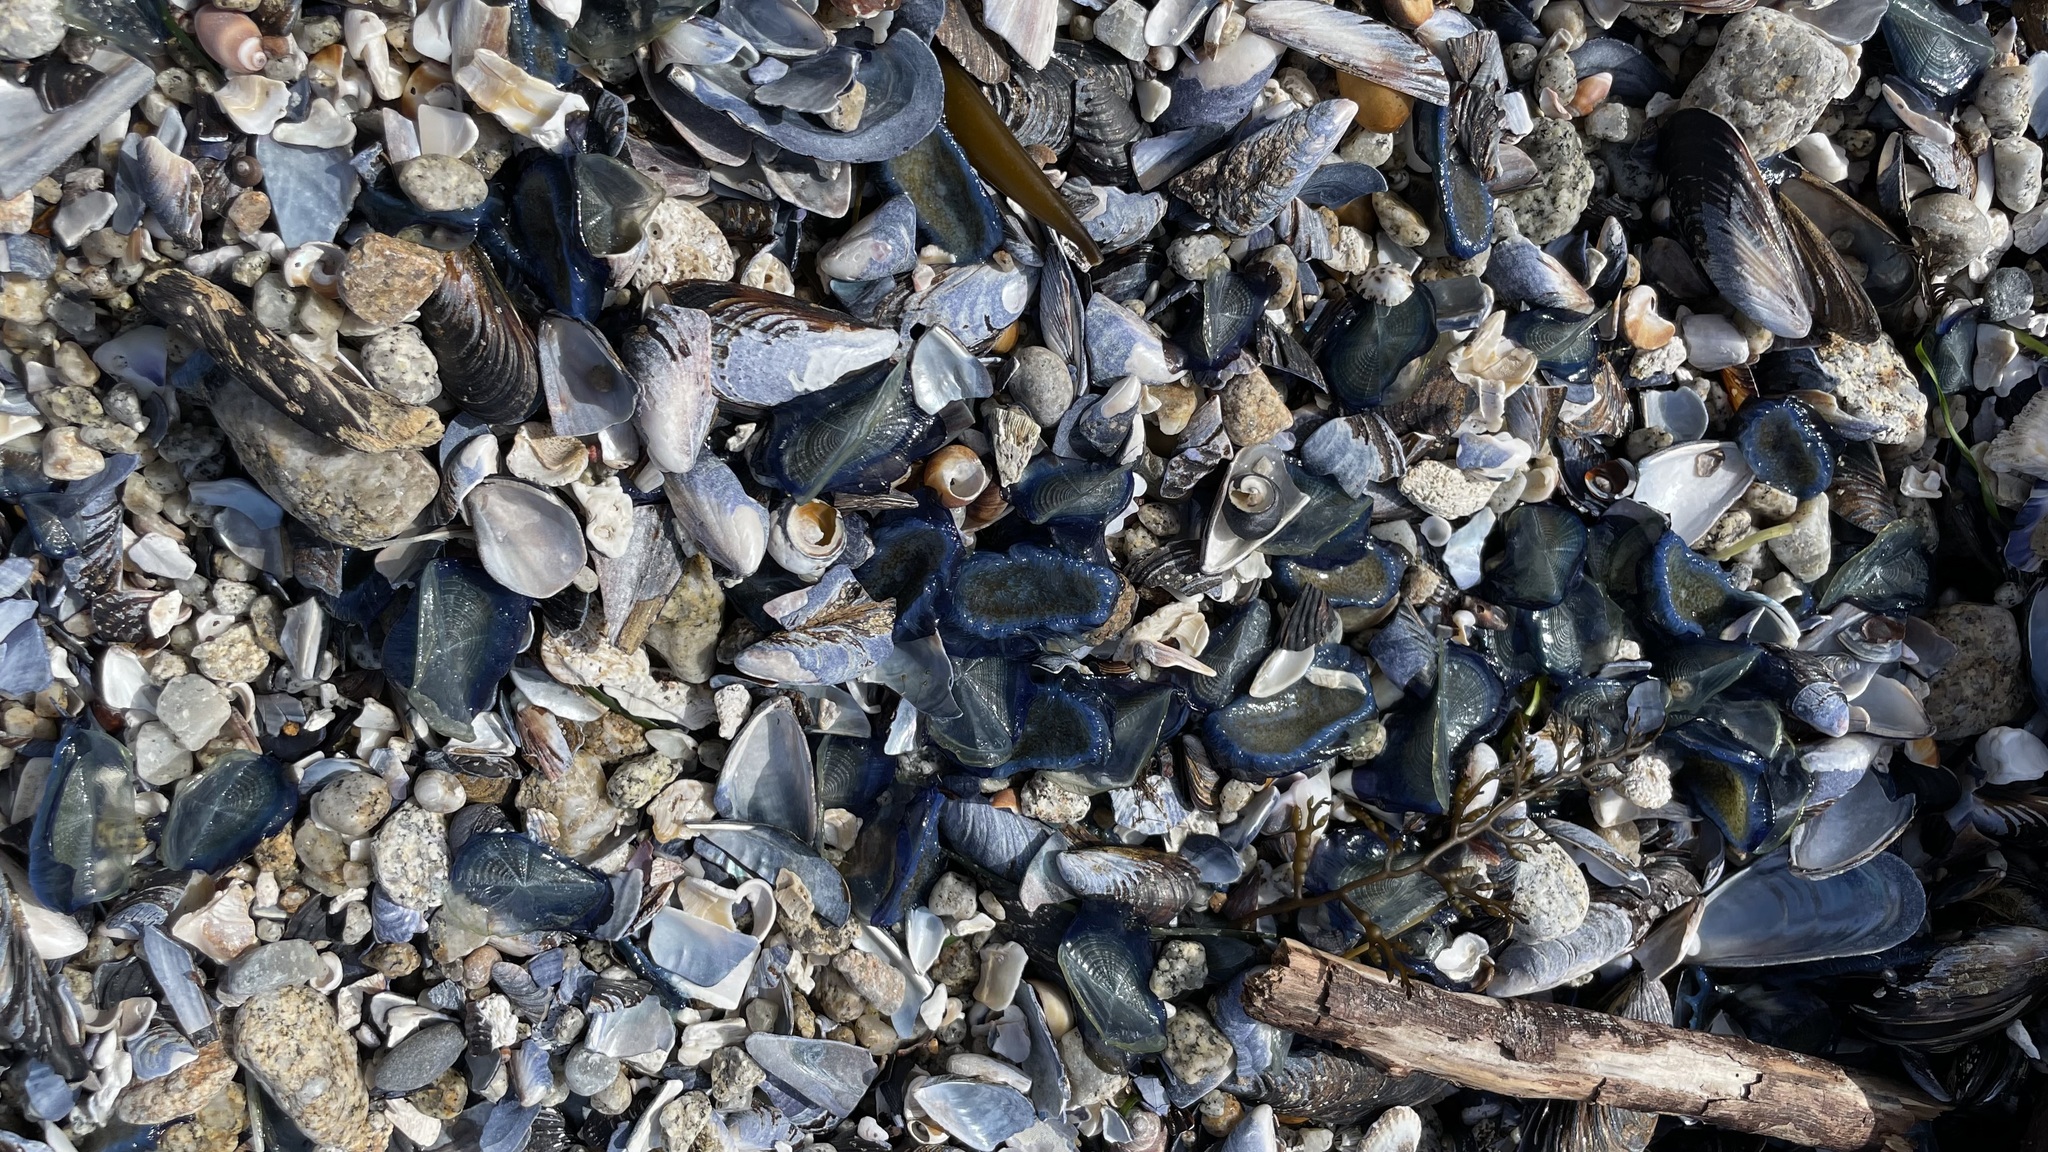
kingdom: Animalia
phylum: Cnidaria
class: Hydrozoa
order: Anthoathecata
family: Porpitidae
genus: Velella
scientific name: Velella velella
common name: By-the-wind-sailor
